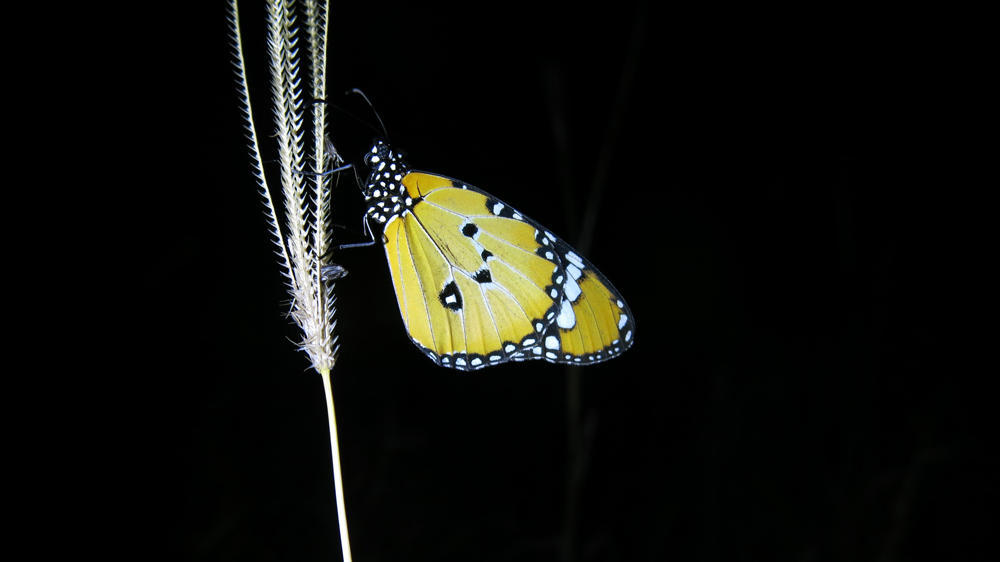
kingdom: Animalia
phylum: Arthropoda
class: Insecta
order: Lepidoptera
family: Nymphalidae
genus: Danaus
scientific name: Danaus chrysippus
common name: Plain tiger
